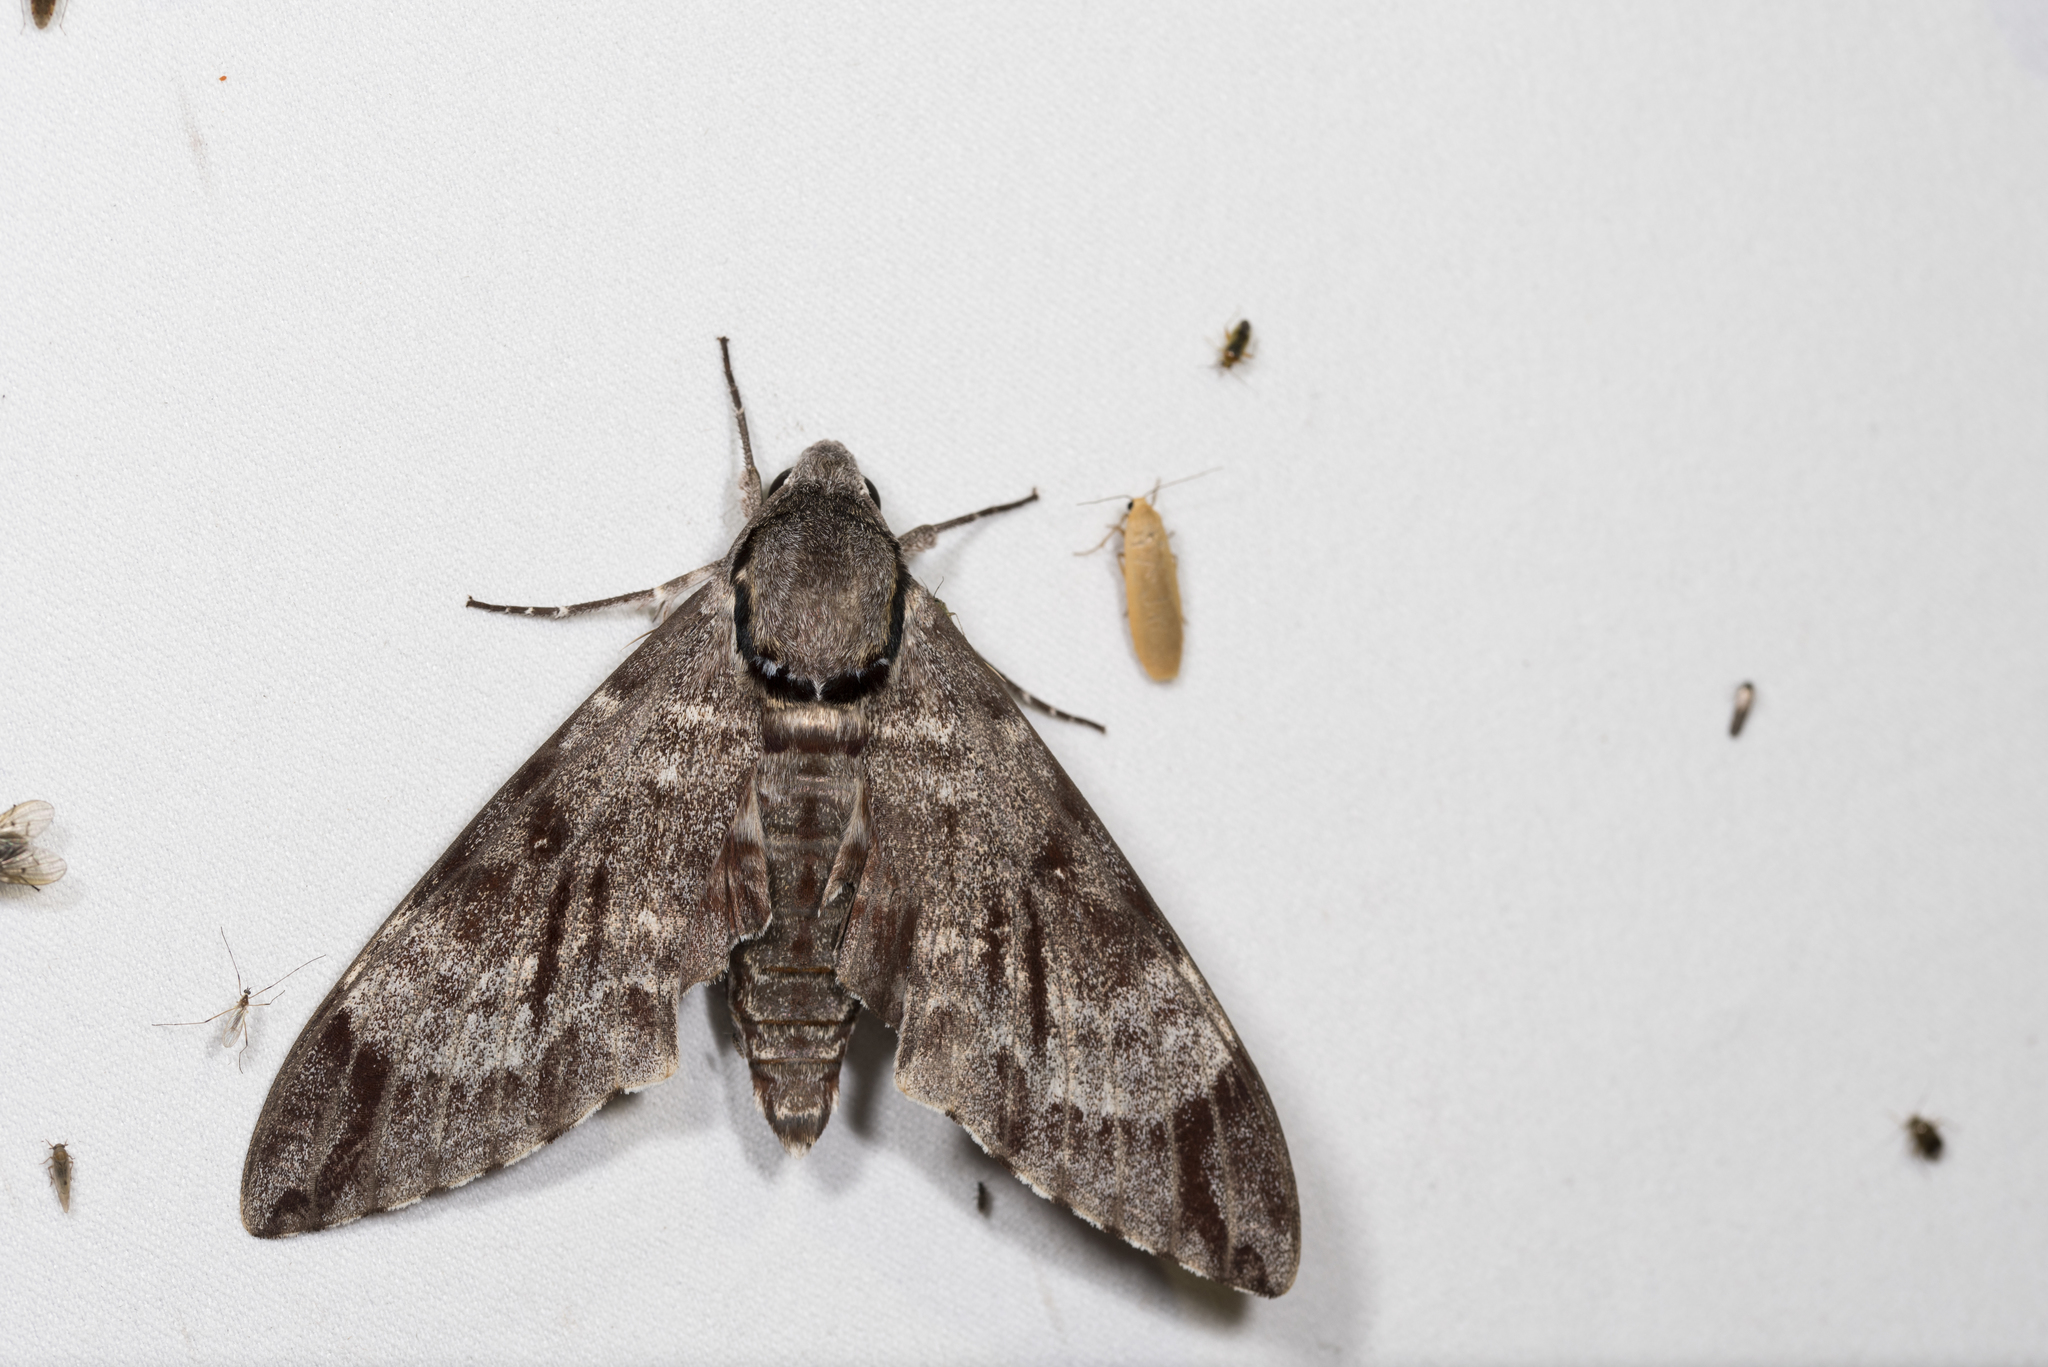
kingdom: Animalia
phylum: Arthropoda
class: Insecta
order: Lepidoptera
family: Sphingidae
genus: Notonagemia
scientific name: Notonagemia analis
